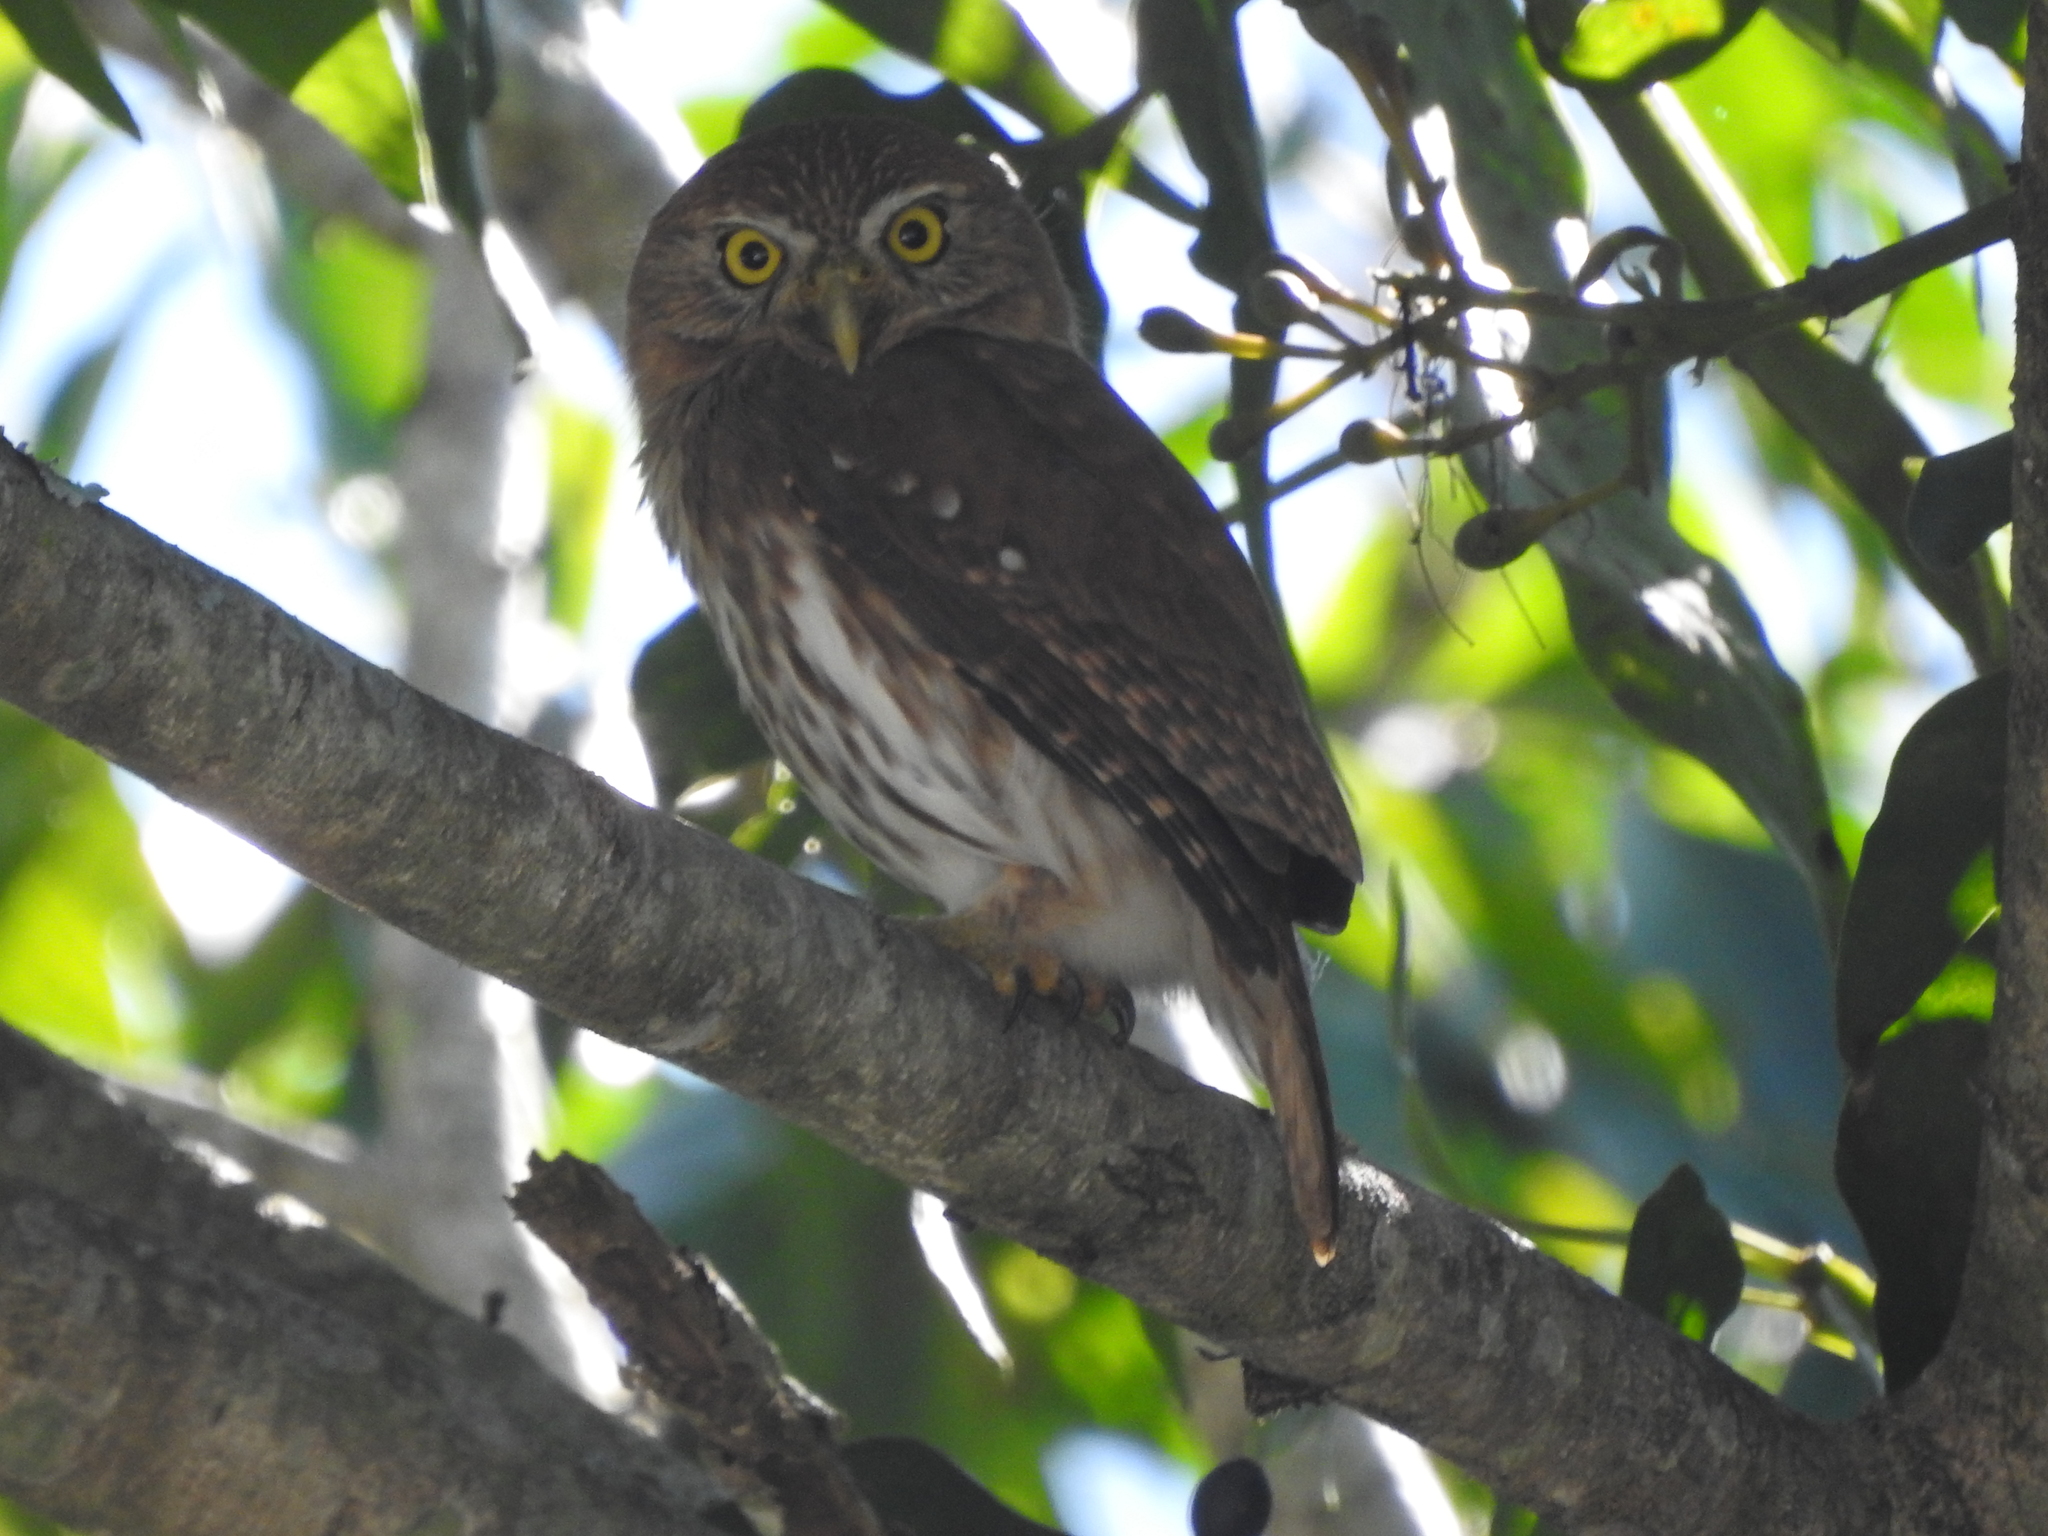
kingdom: Animalia
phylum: Chordata
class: Aves
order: Strigiformes
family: Strigidae
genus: Glaucidium
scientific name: Glaucidium brasilianum
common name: Ferruginous pygmy-owl
